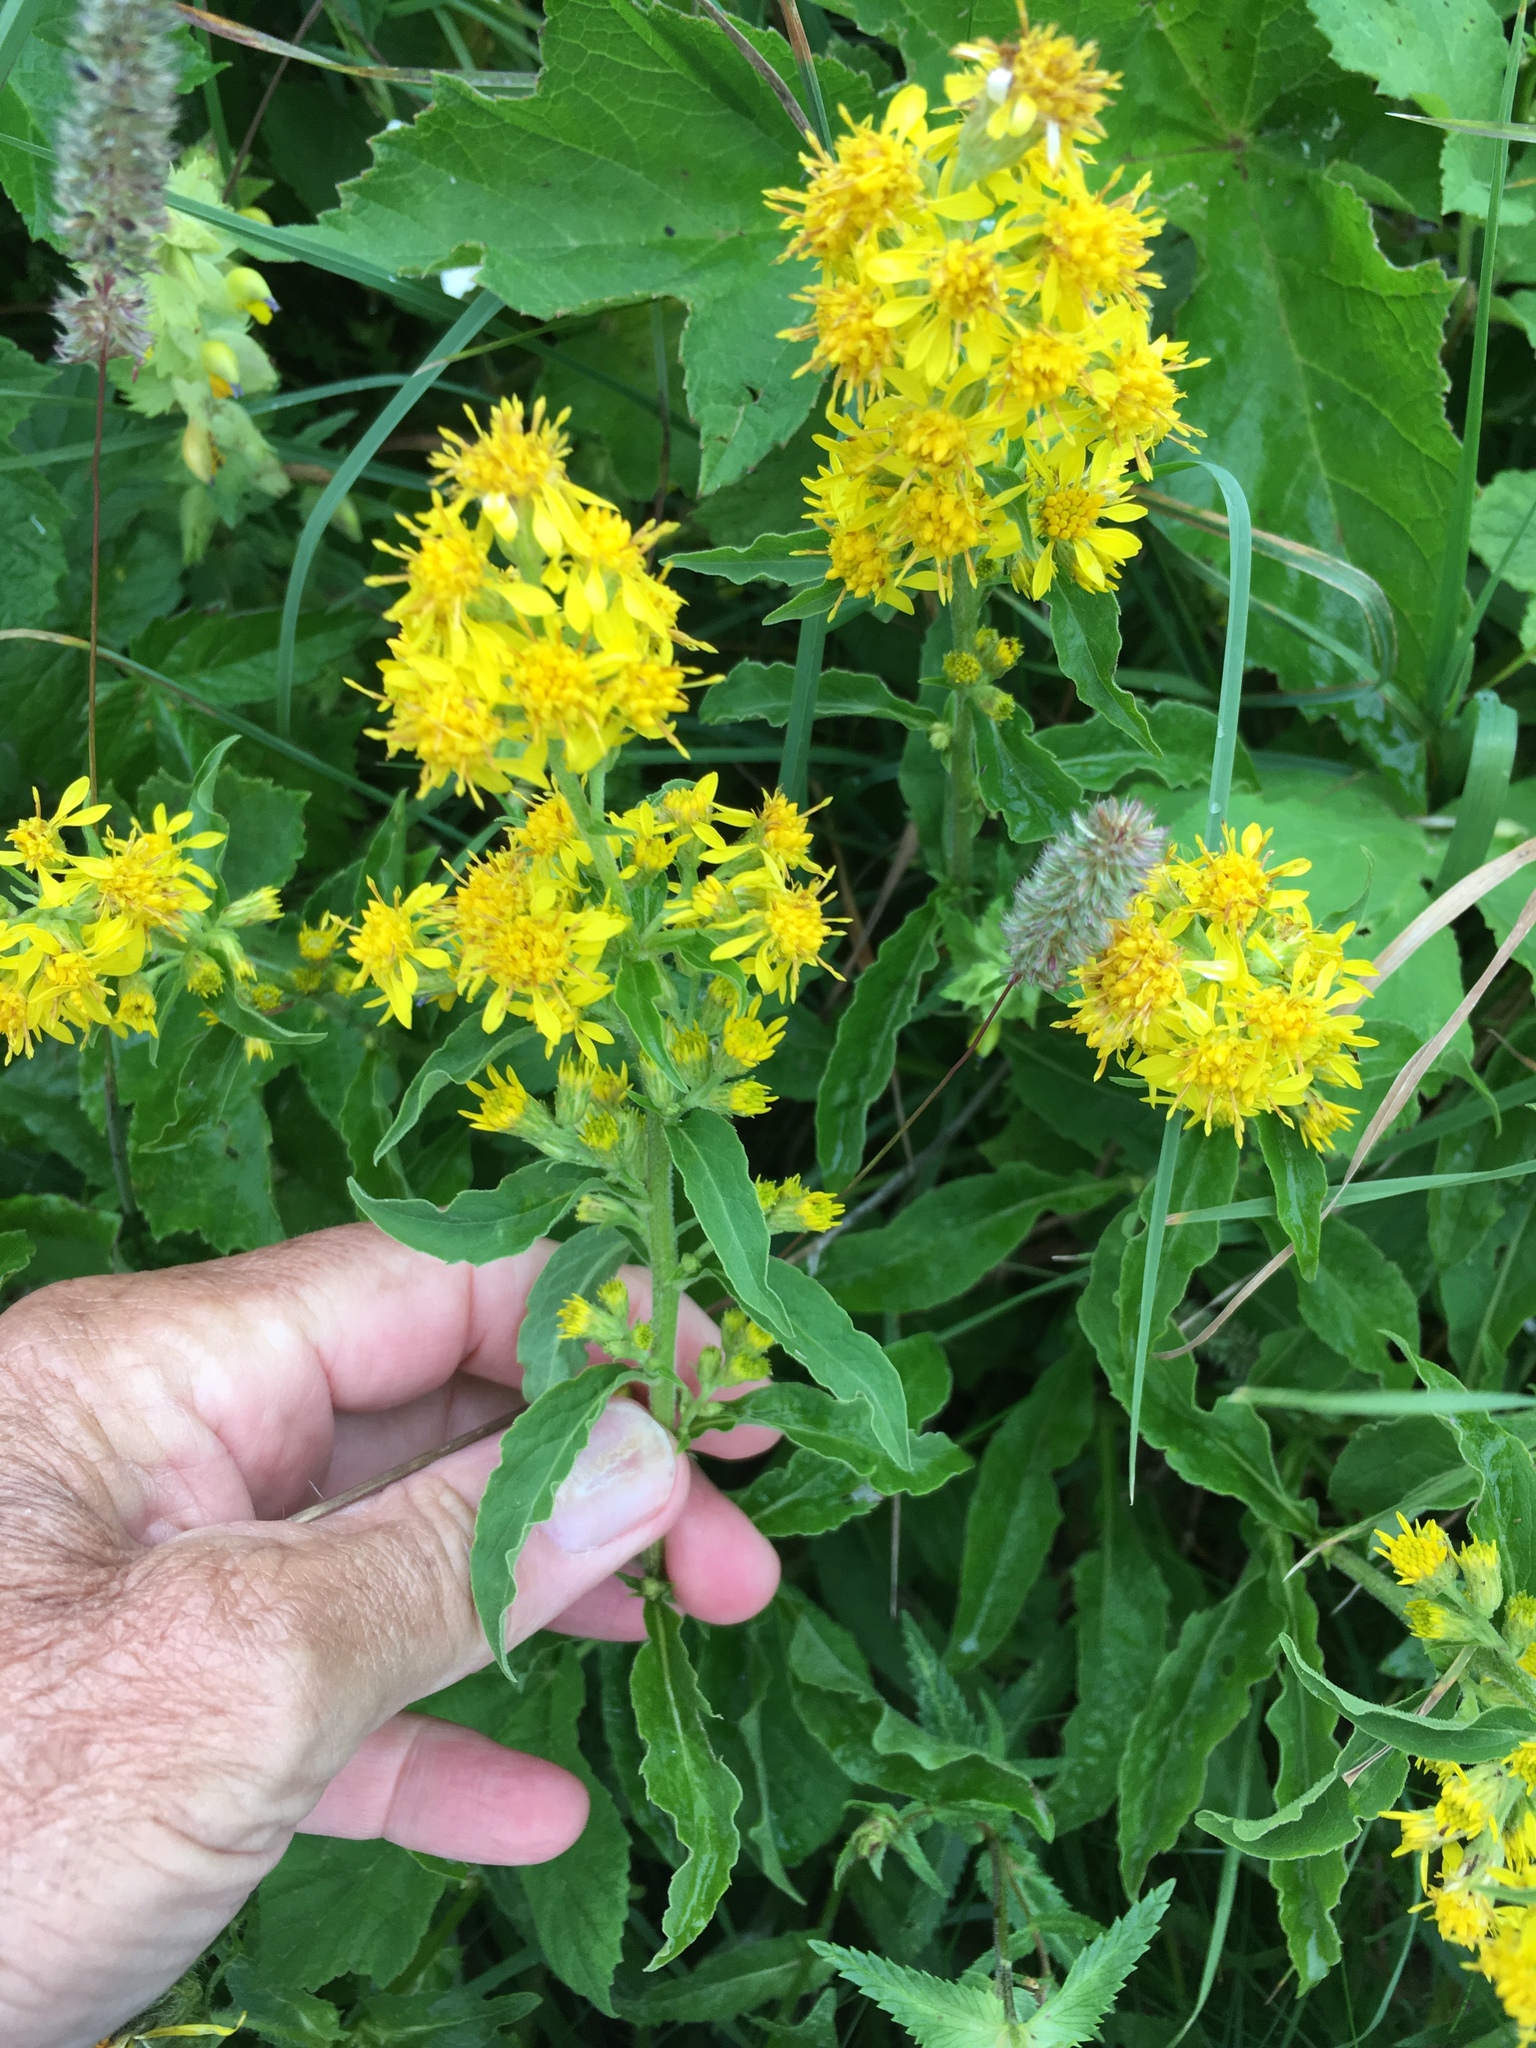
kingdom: Plantae
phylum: Tracheophyta
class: Magnoliopsida
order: Asterales
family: Asteraceae
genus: Solidago
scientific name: Solidago virgaurea
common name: Goldenrod
